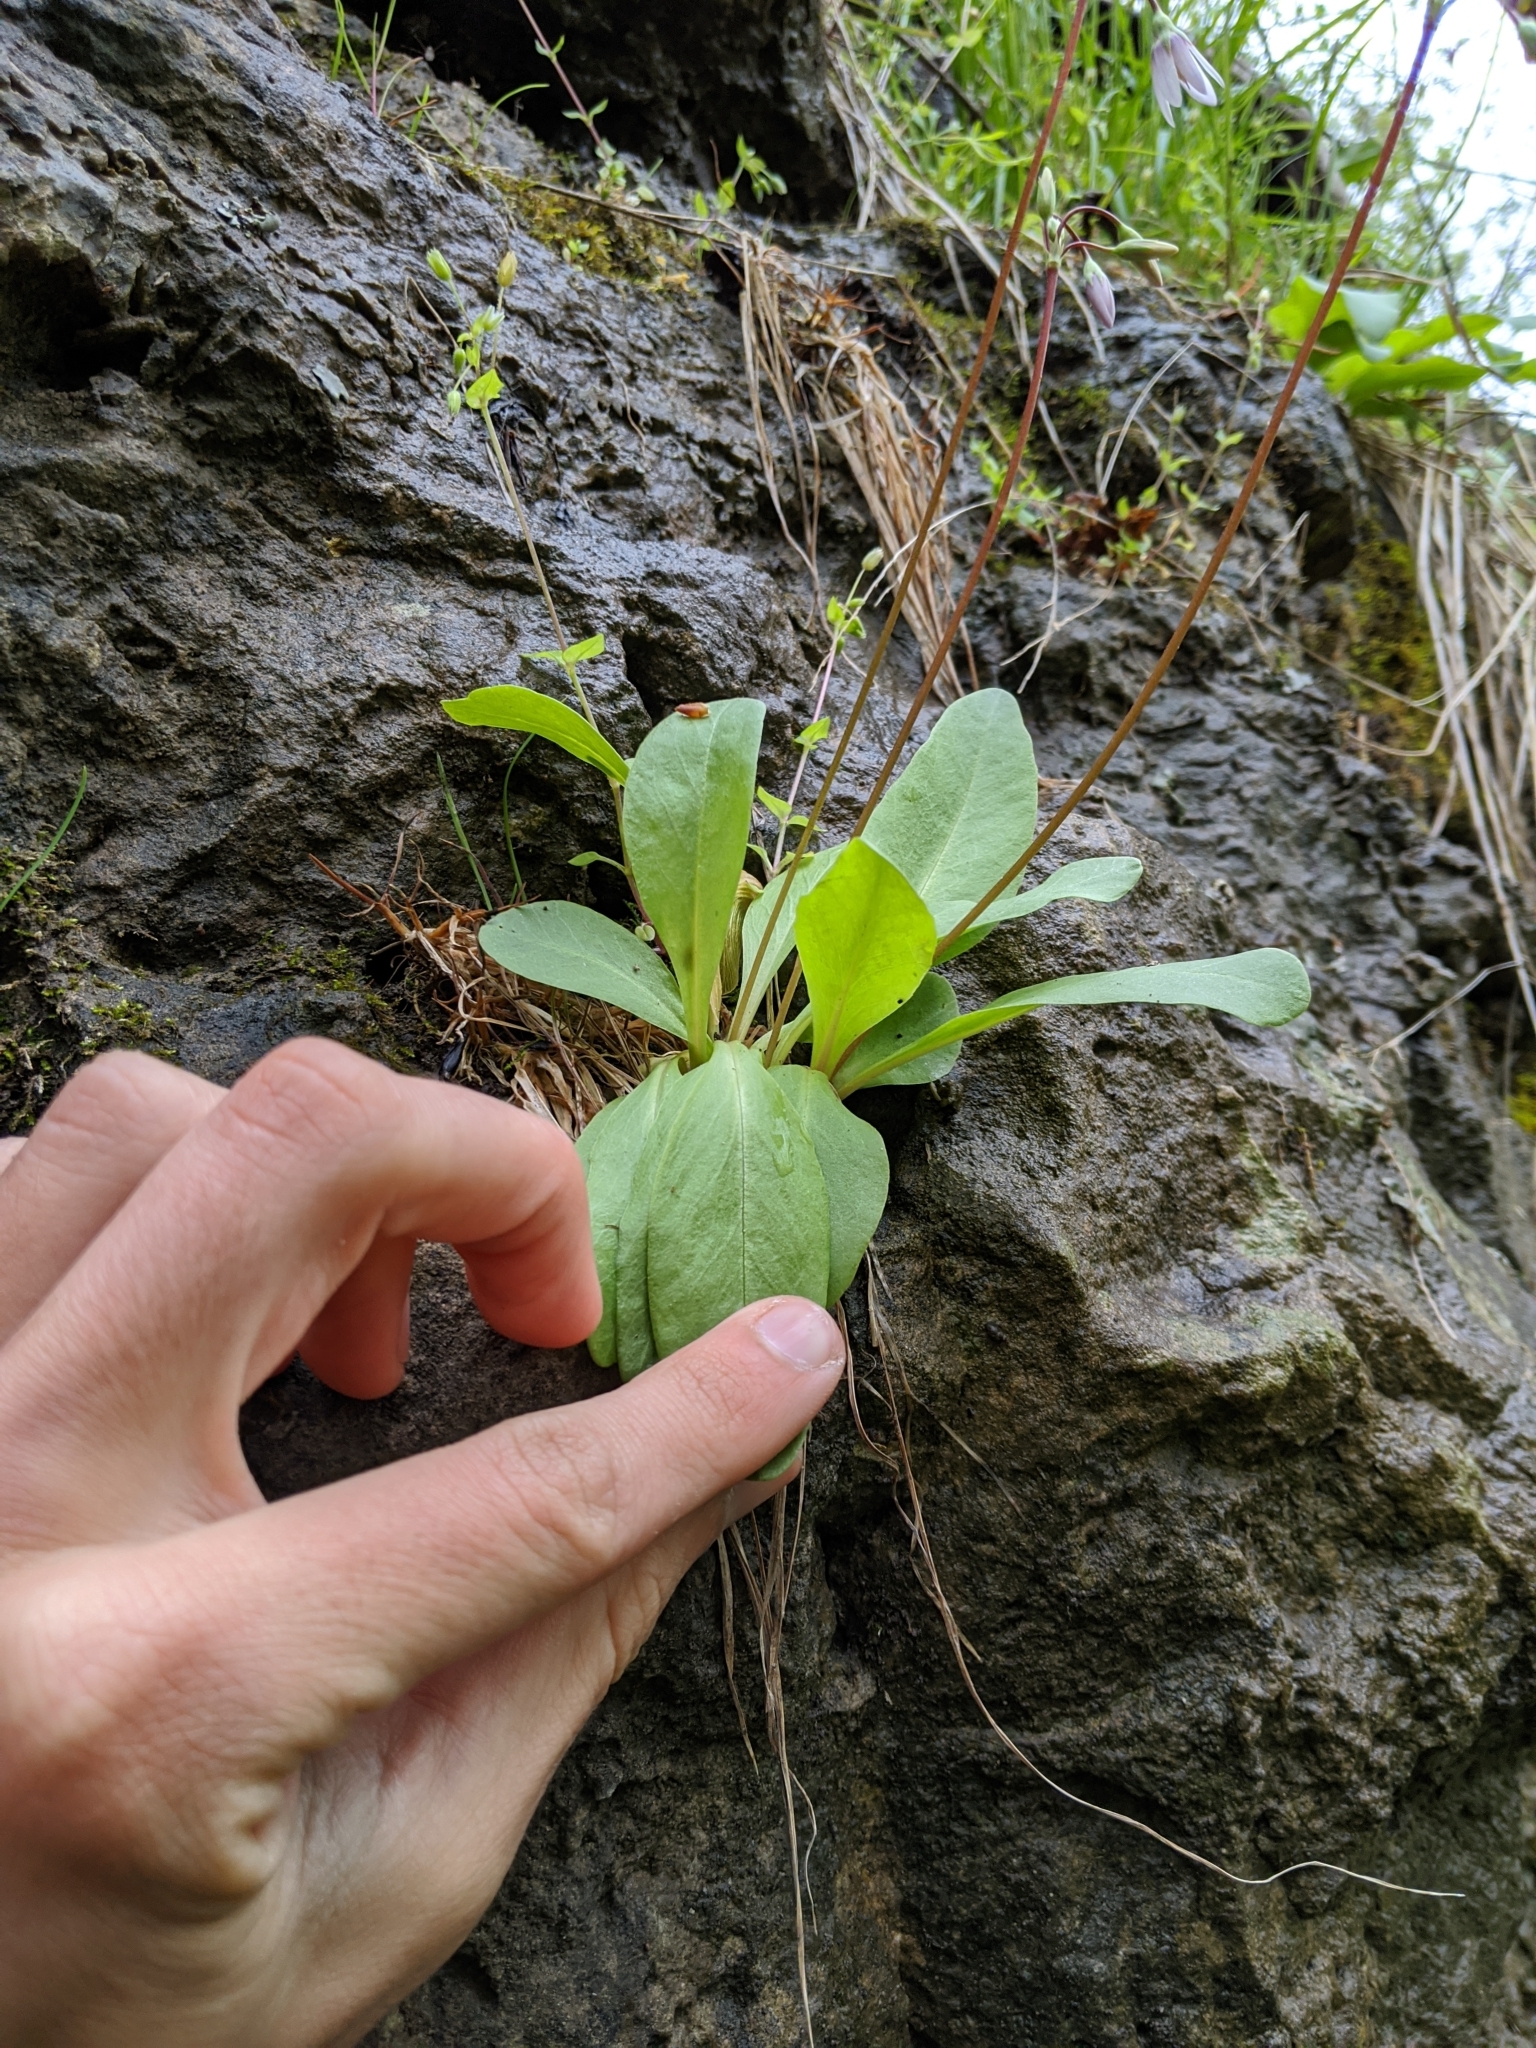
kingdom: Plantae
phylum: Tracheophyta
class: Magnoliopsida
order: Ericales
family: Primulaceae
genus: Dodecatheon
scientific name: Dodecatheon meadia
